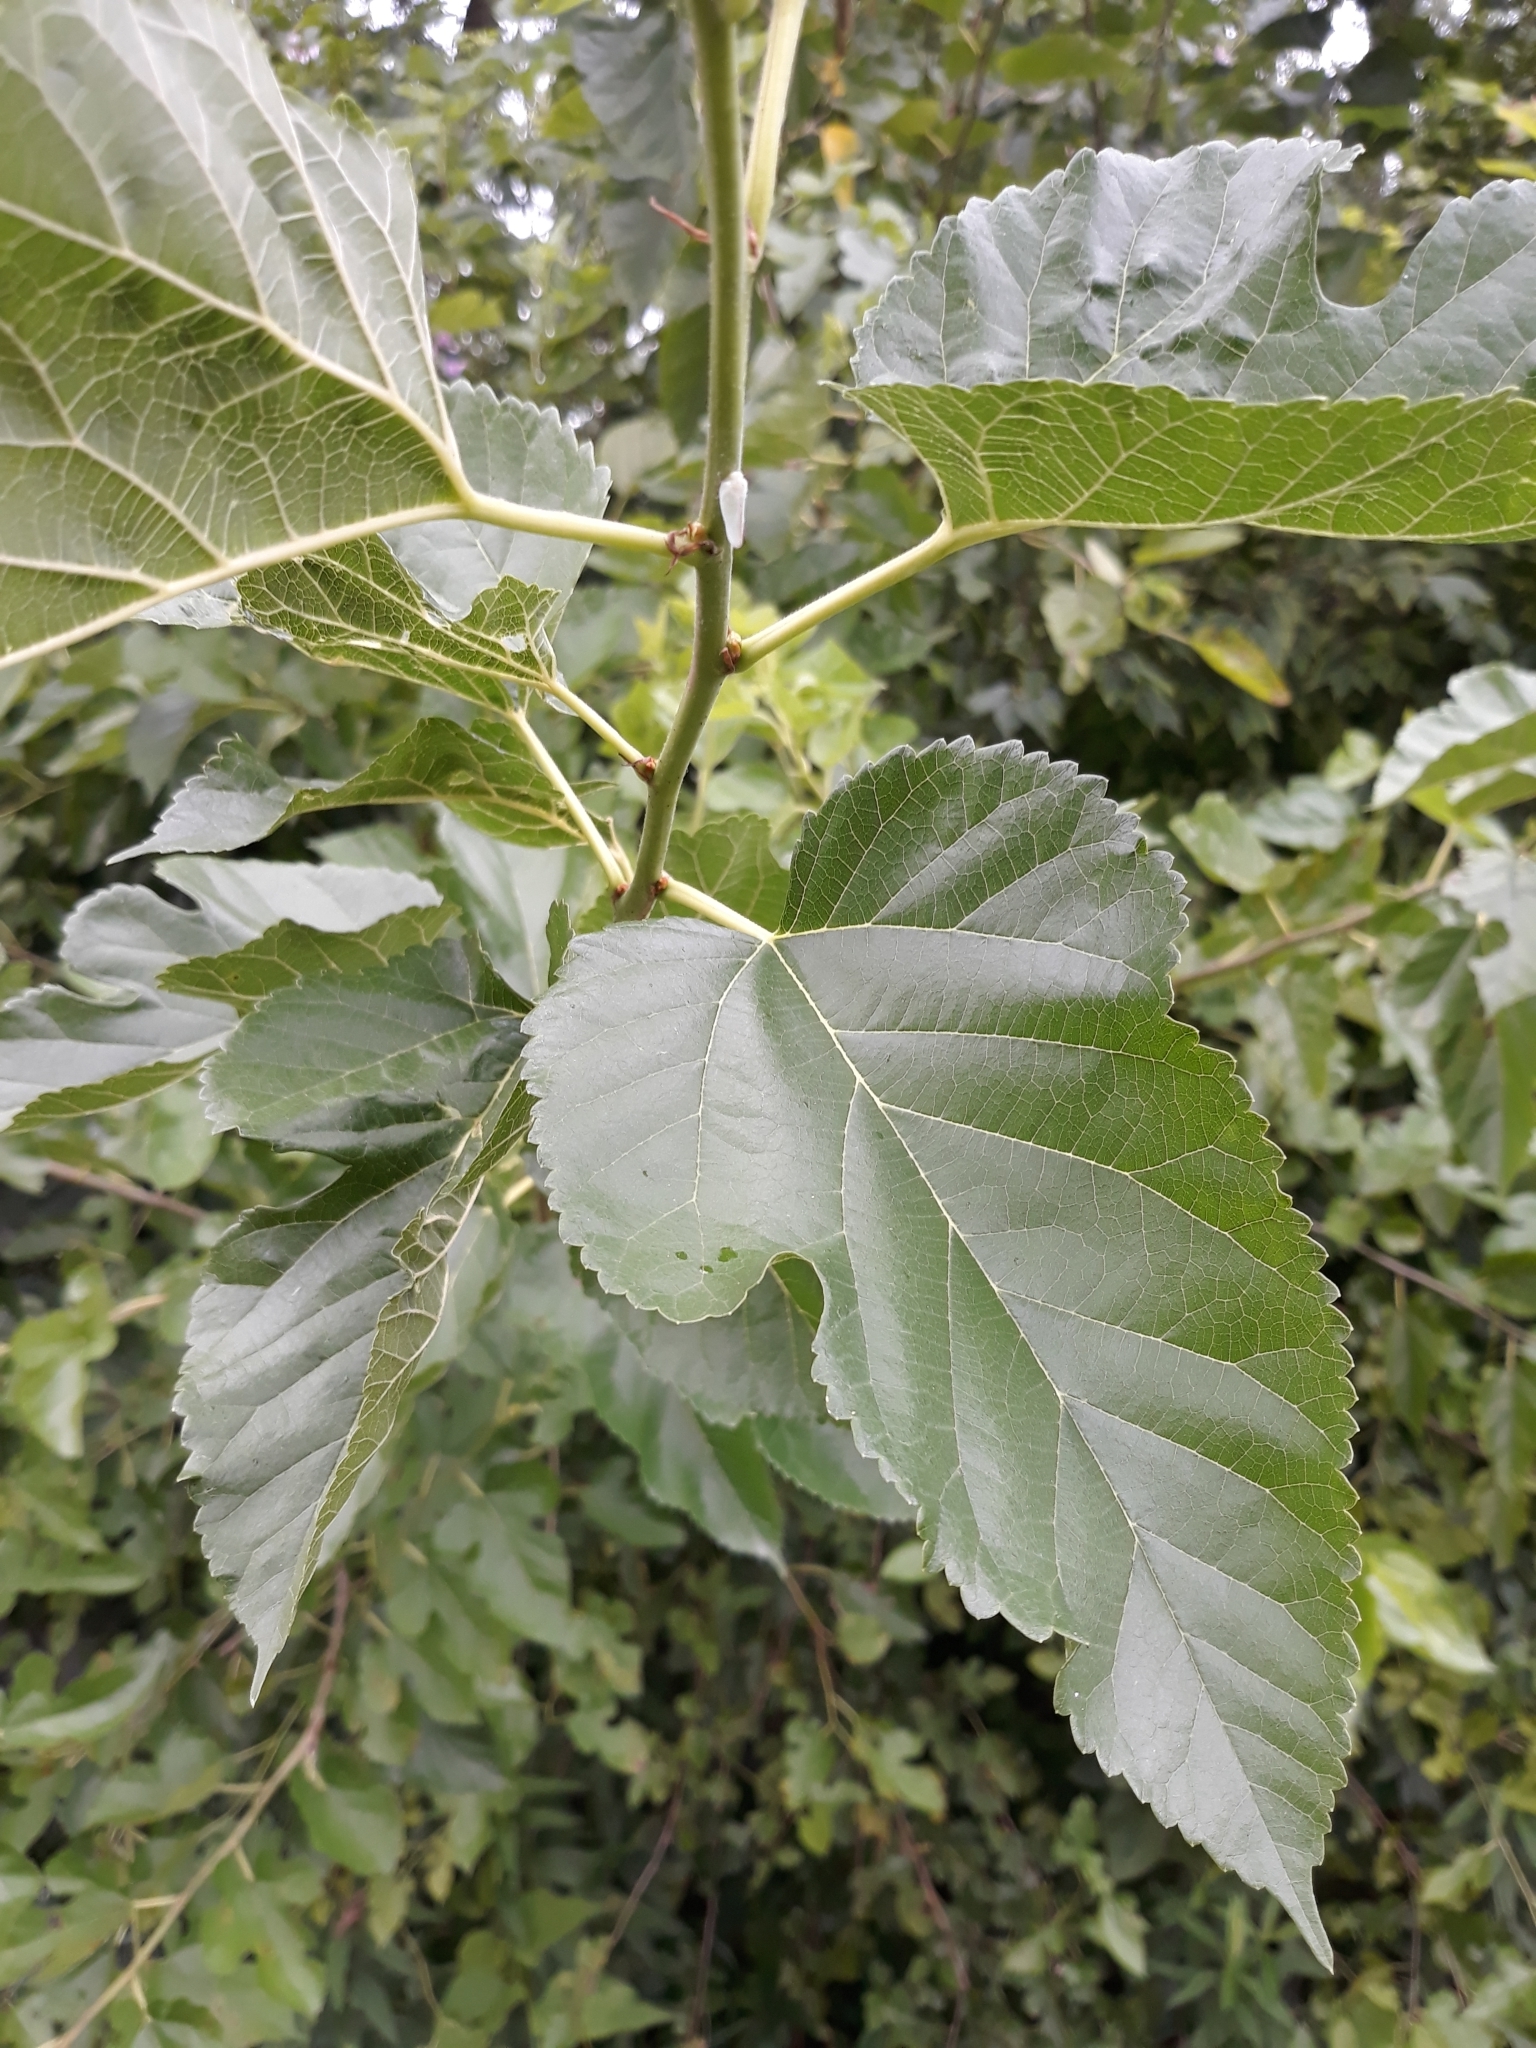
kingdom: Plantae
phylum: Tracheophyta
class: Magnoliopsida
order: Rosales
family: Moraceae
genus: Morus
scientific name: Morus alba
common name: White mulberry
